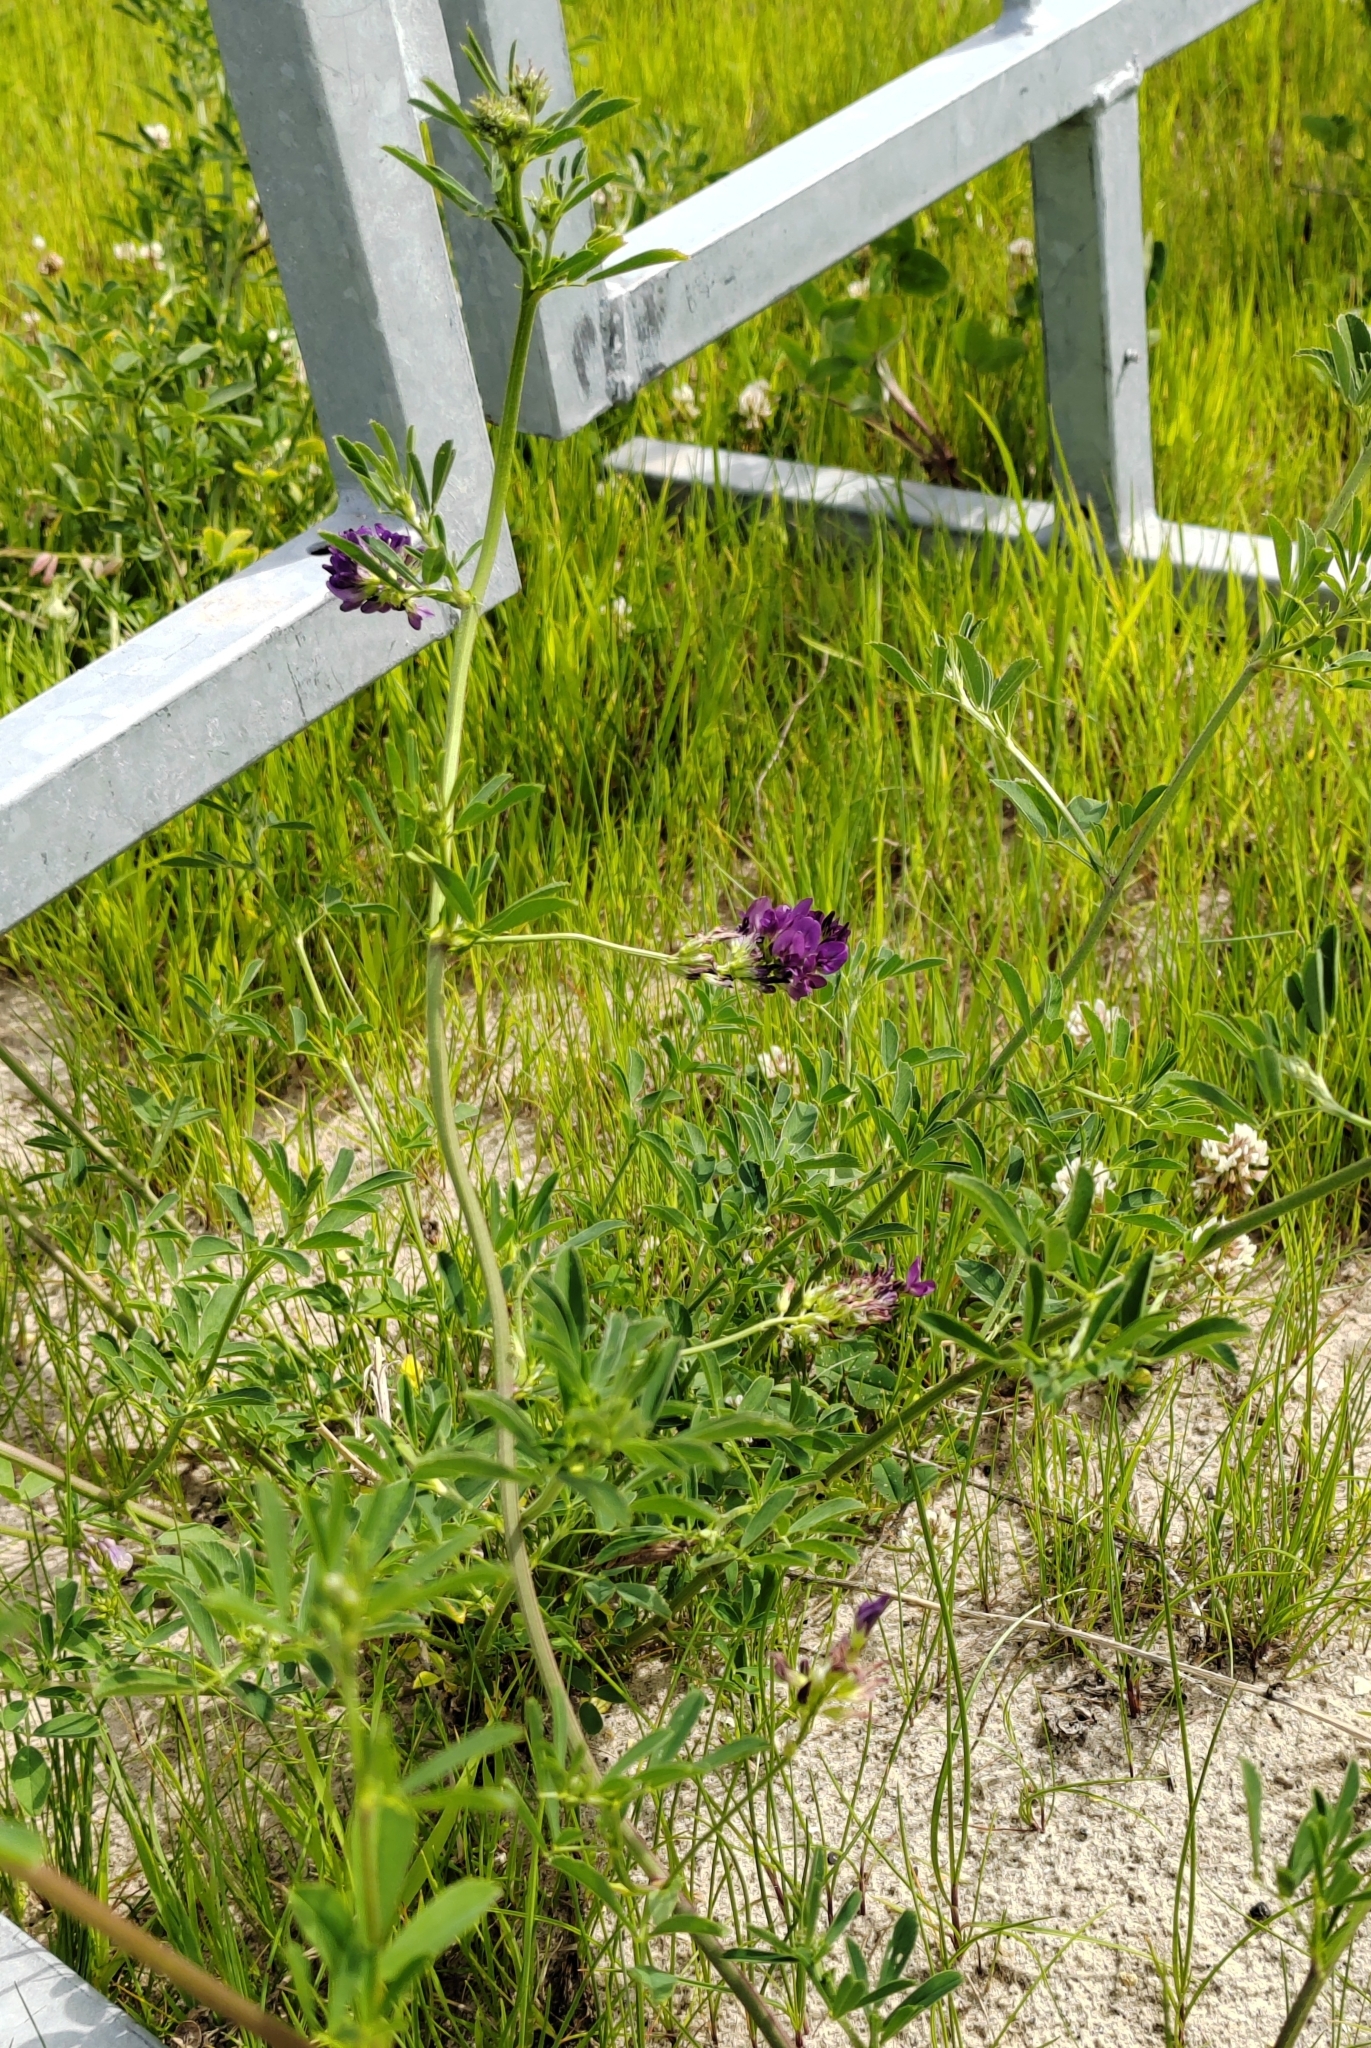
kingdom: Plantae
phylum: Tracheophyta
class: Magnoliopsida
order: Fabales
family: Fabaceae
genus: Medicago
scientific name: Medicago varia
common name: Sand lucerne
